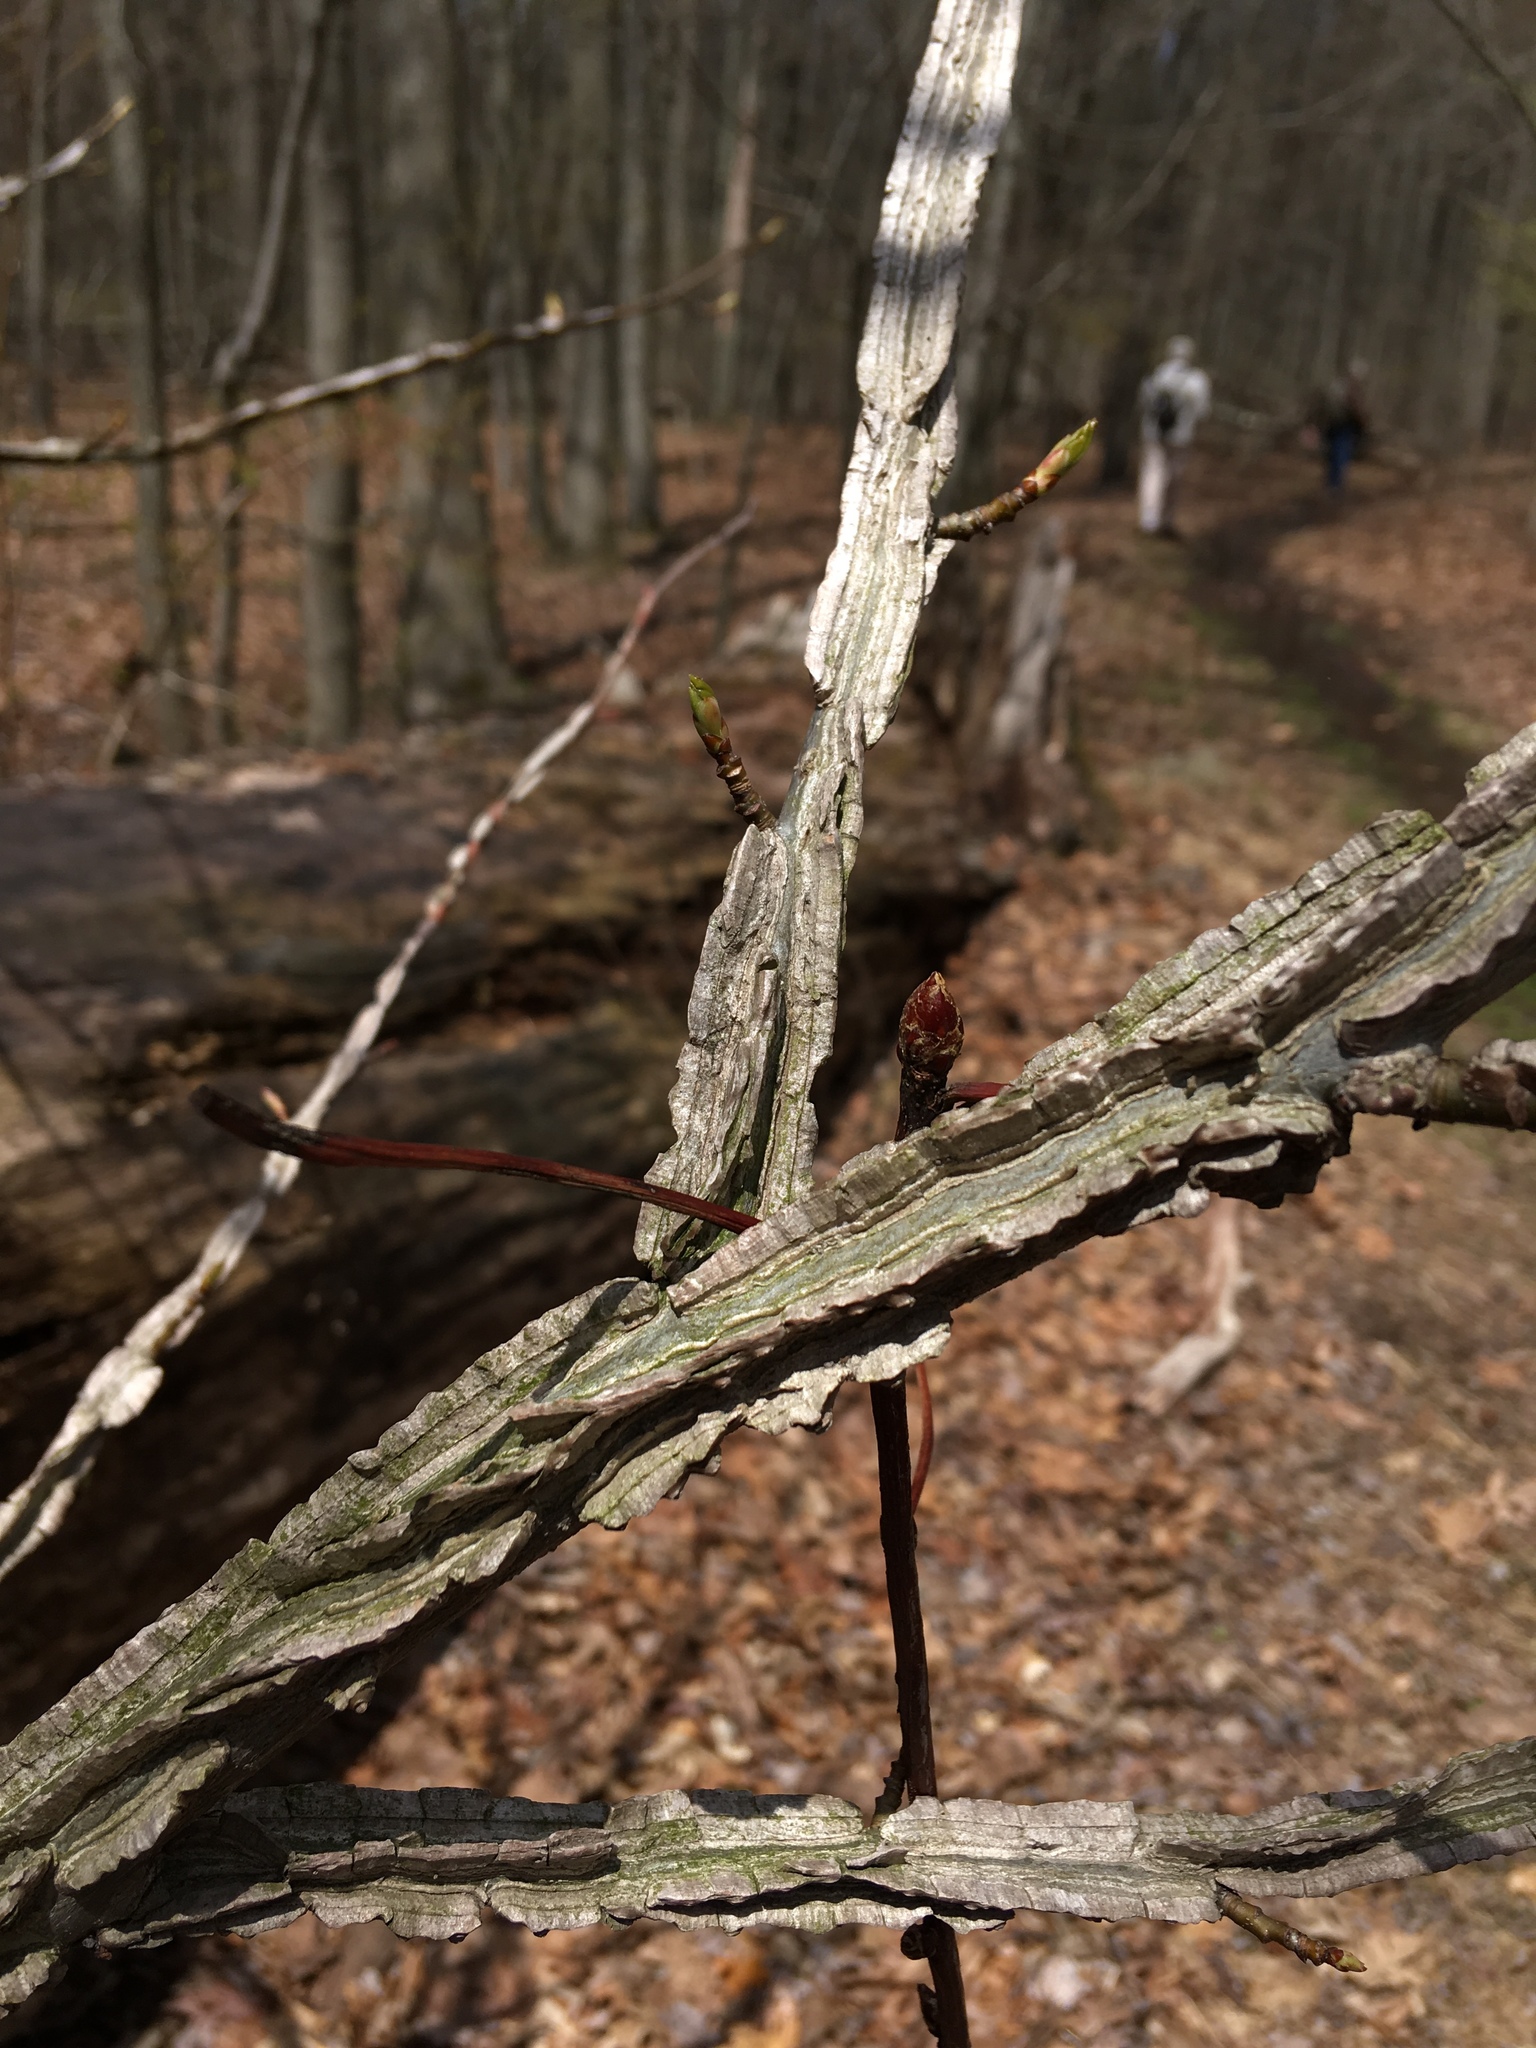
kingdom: Plantae
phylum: Tracheophyta
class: Magnoliopsida
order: Saxifragales
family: Altingiaceae
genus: Liquidambar
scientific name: Liquidambar styraciflua
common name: Sweet gum
